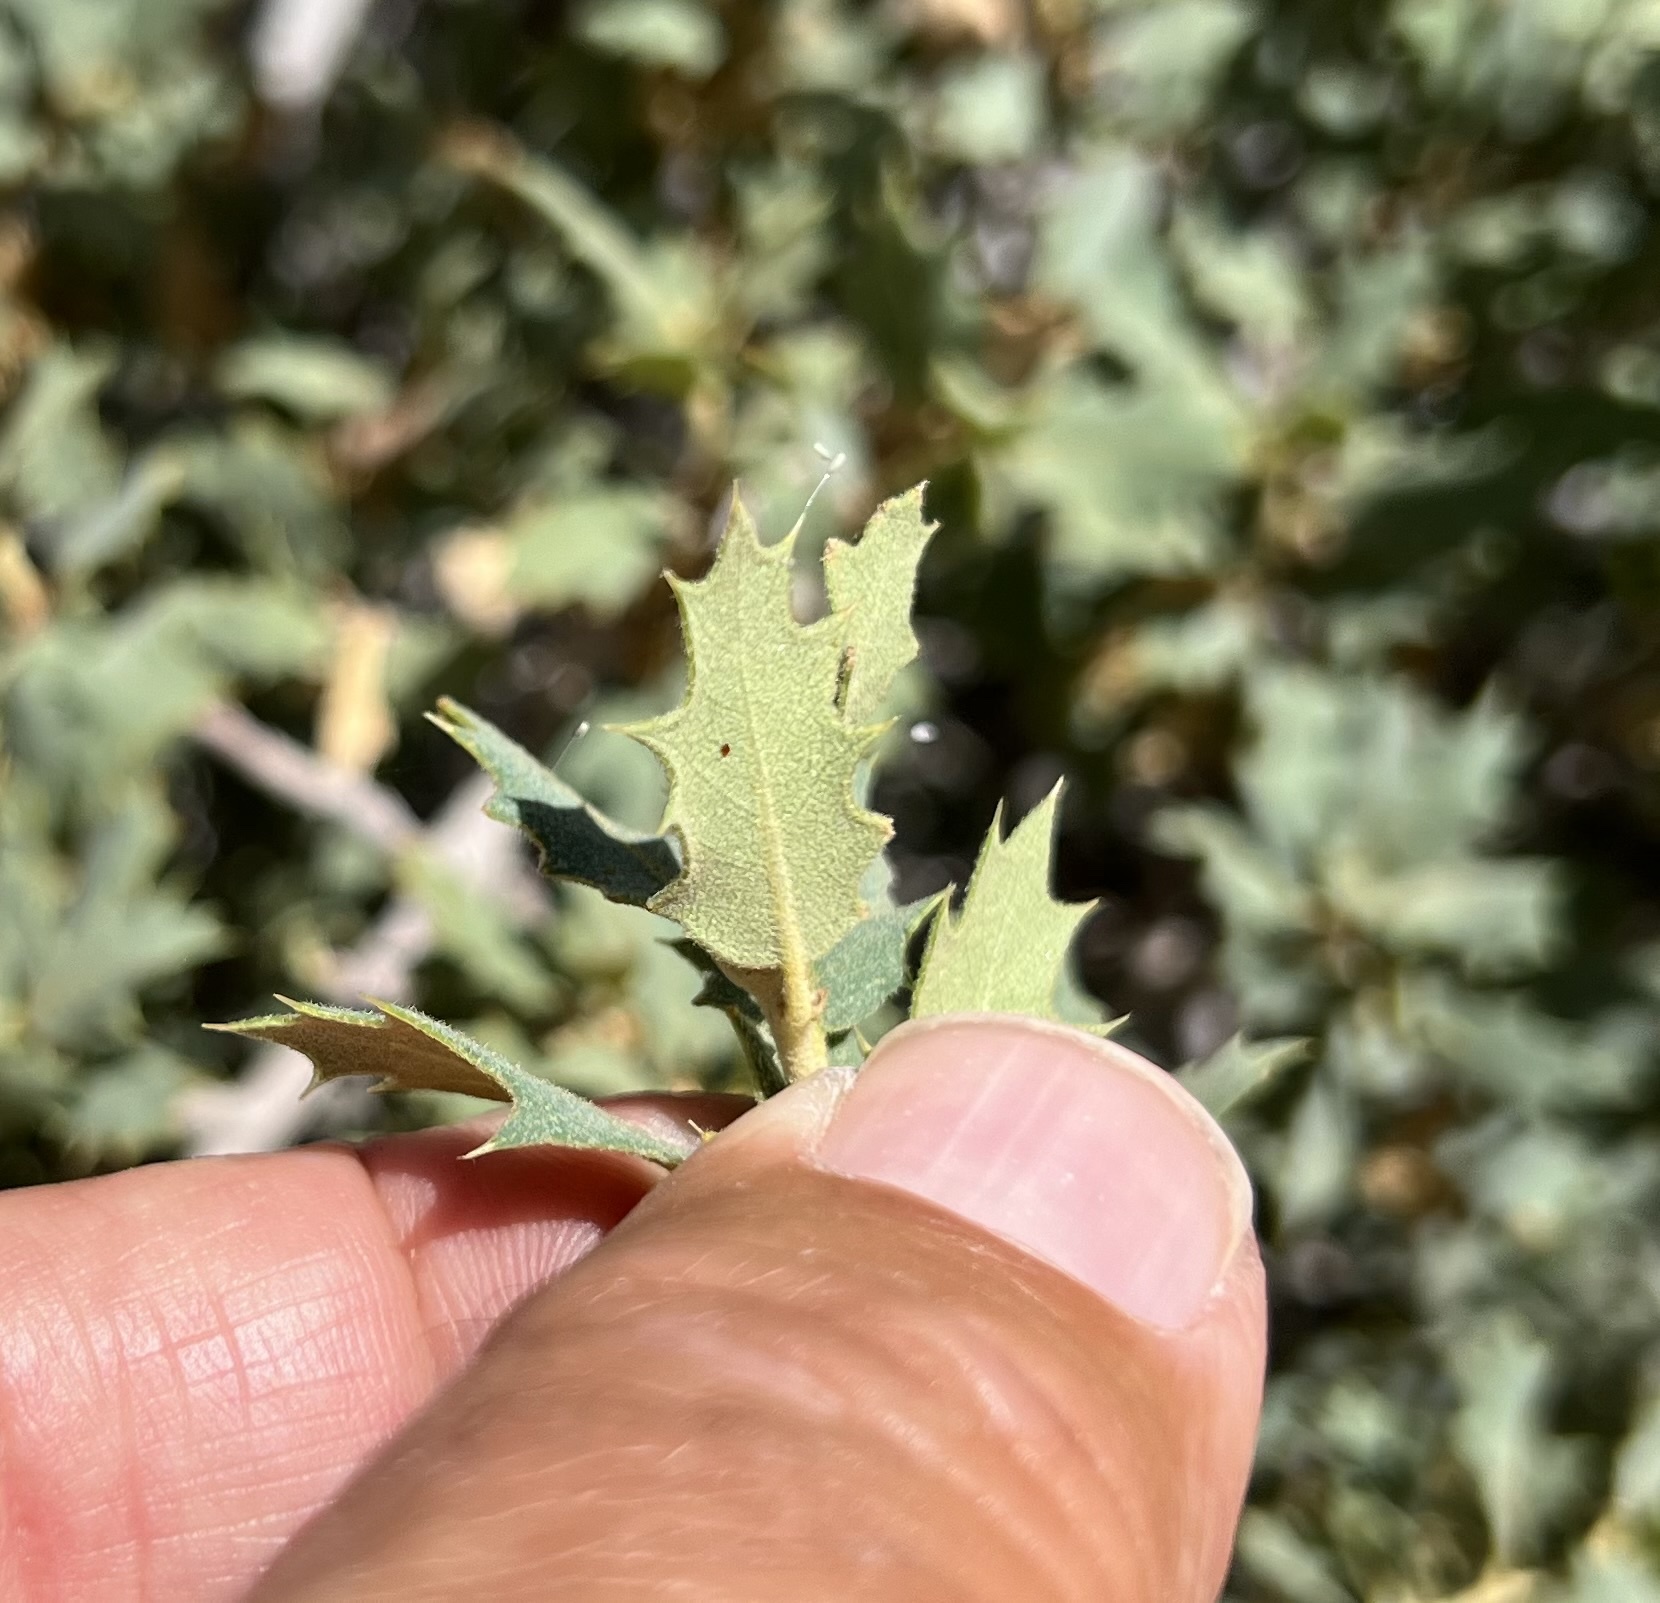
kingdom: Plantae
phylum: Tracheophyta
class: Magnoliopsida
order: Fagales
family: Fagaceae
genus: Quercus
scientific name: Quercus turbinella
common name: Sonoran scrub oak
